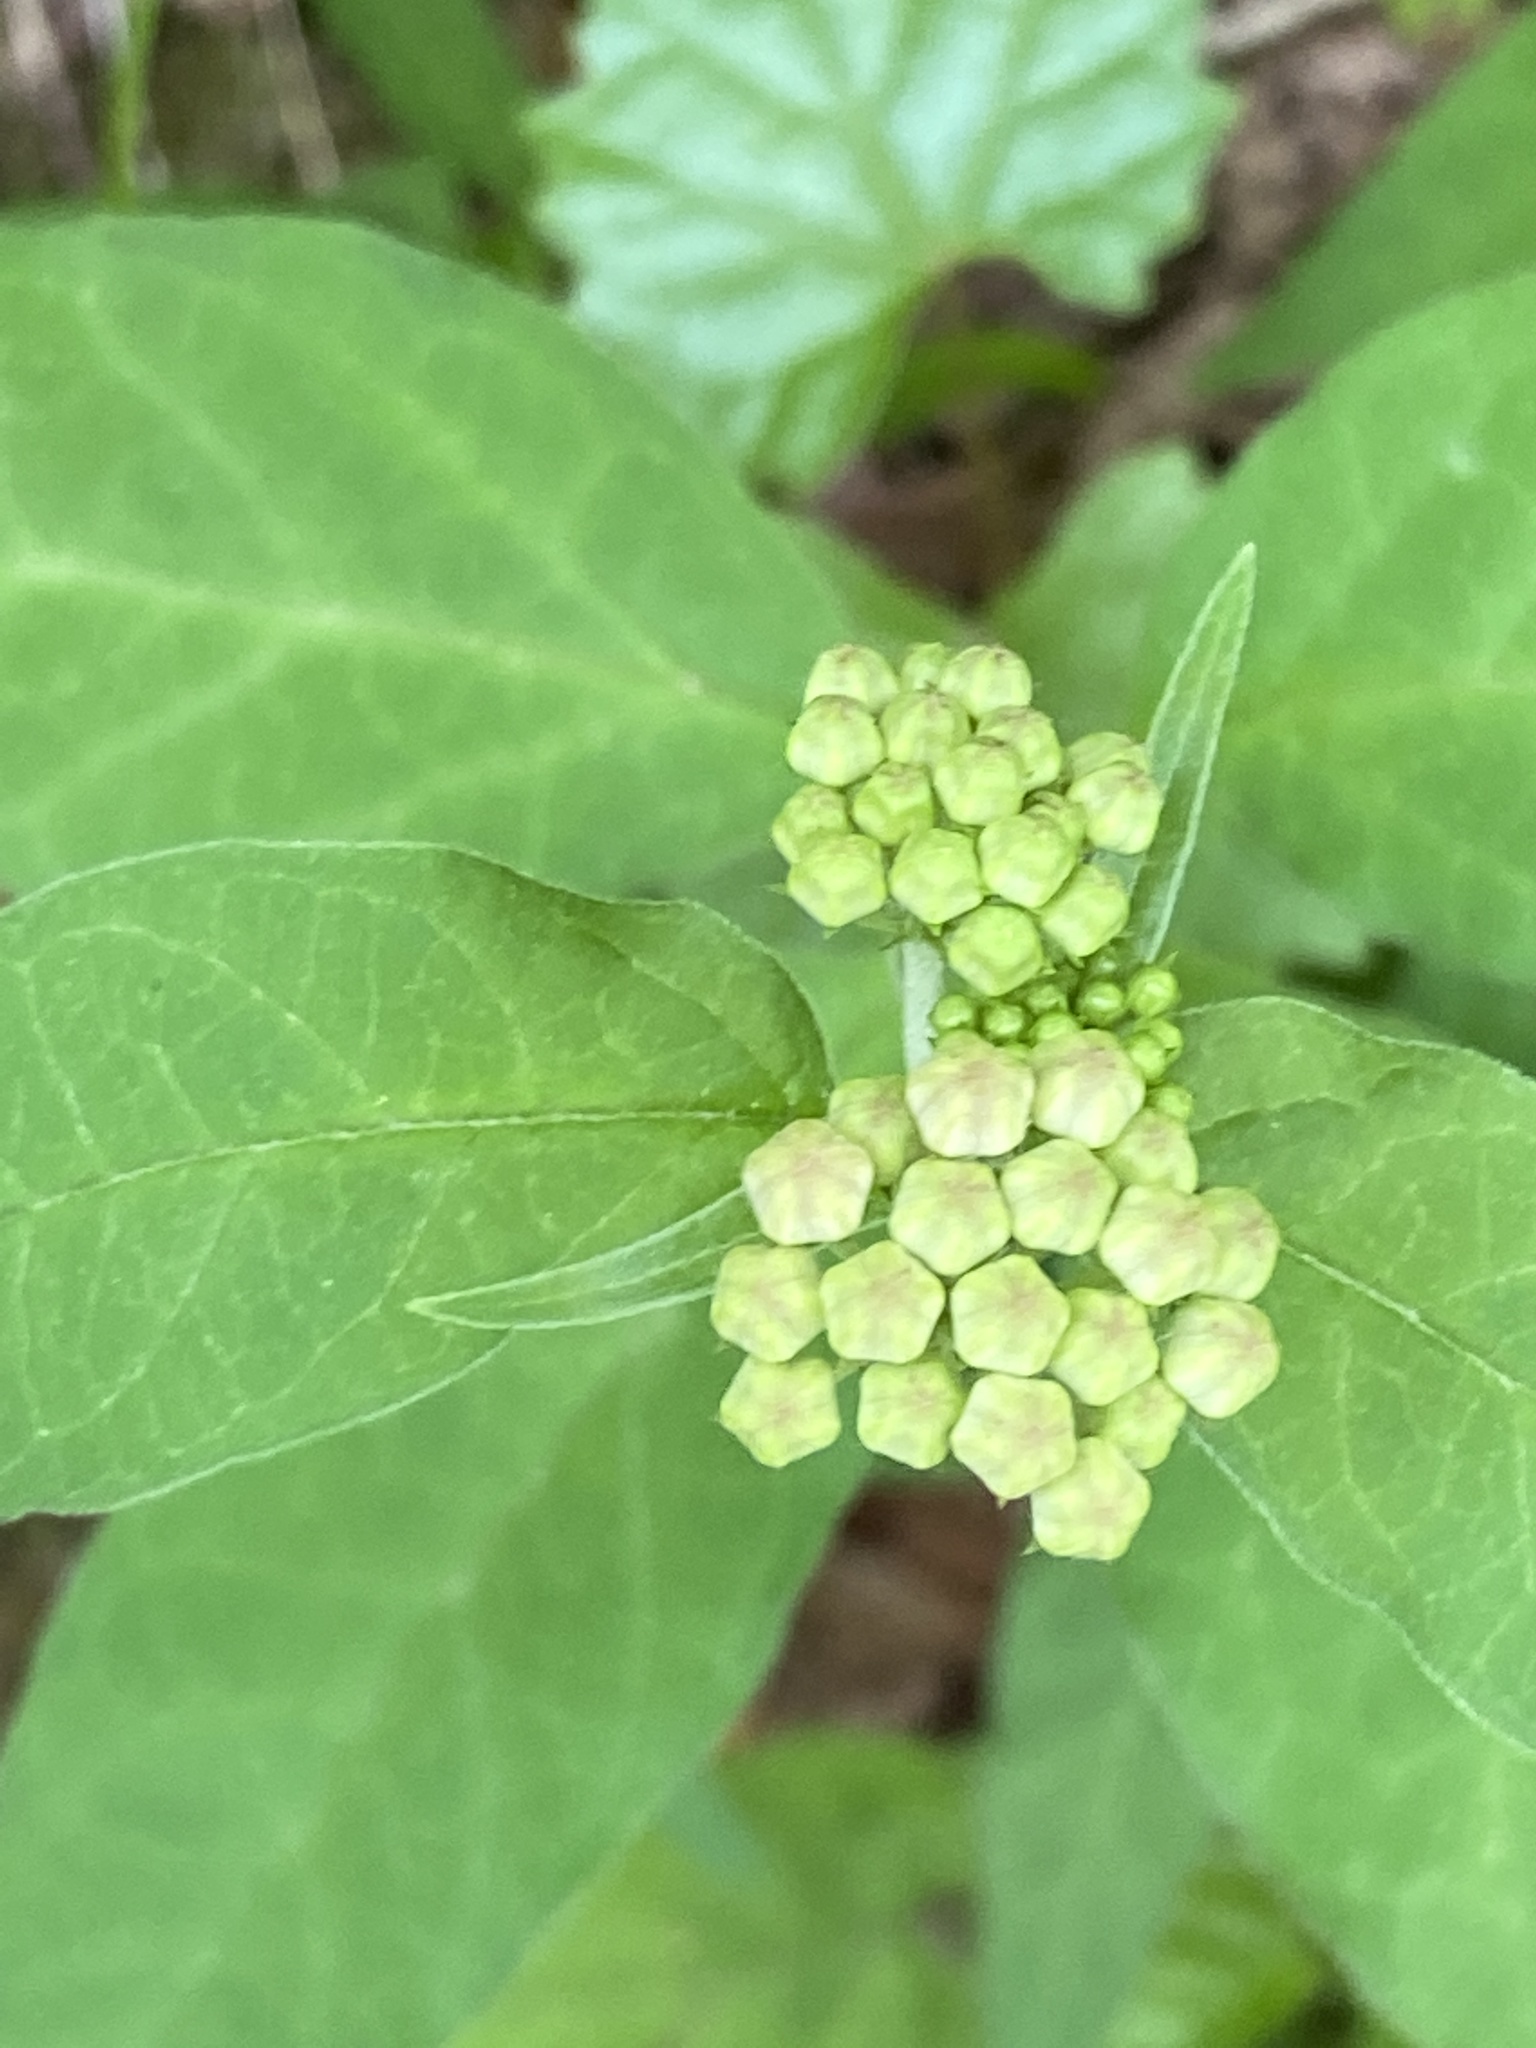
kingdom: Plantae
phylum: Tracheophyta
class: Magnoliopsida
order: Gentianales
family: Apocynaceae
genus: Asclepias
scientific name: Asclepias quadrifolia
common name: Whorled milkweed
